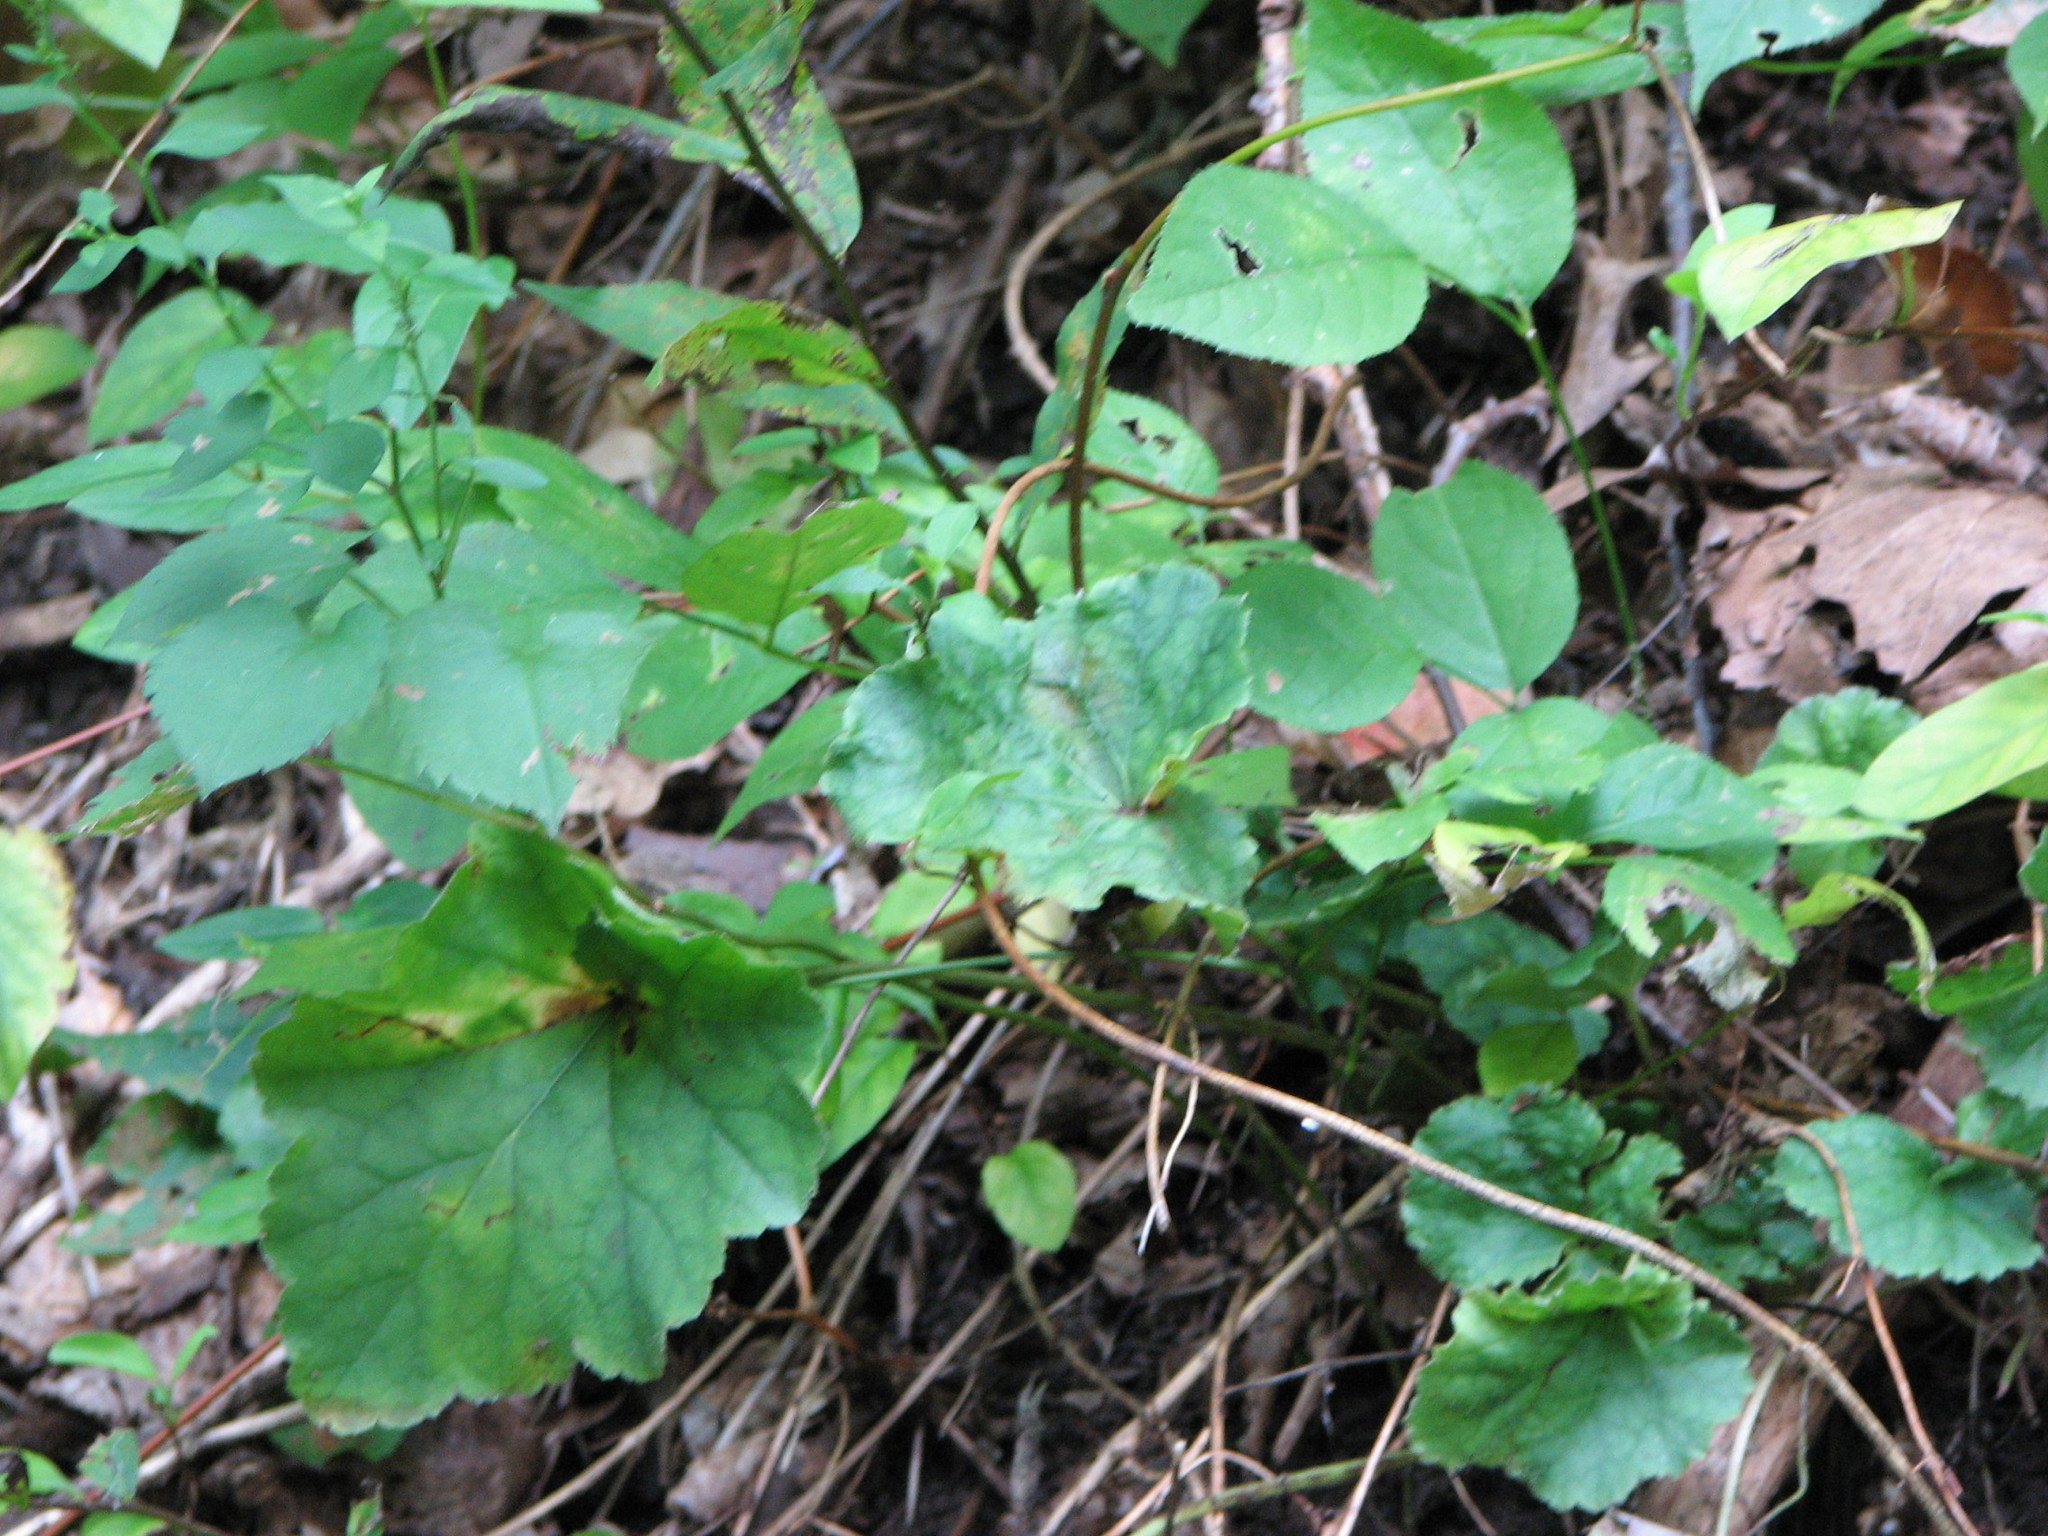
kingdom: Plantae
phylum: Tracheophyta
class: Magnoliopsida
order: Saxifragales
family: Saxifragaceae
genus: Heuchera
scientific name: Heuchera americana
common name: Alumroot
